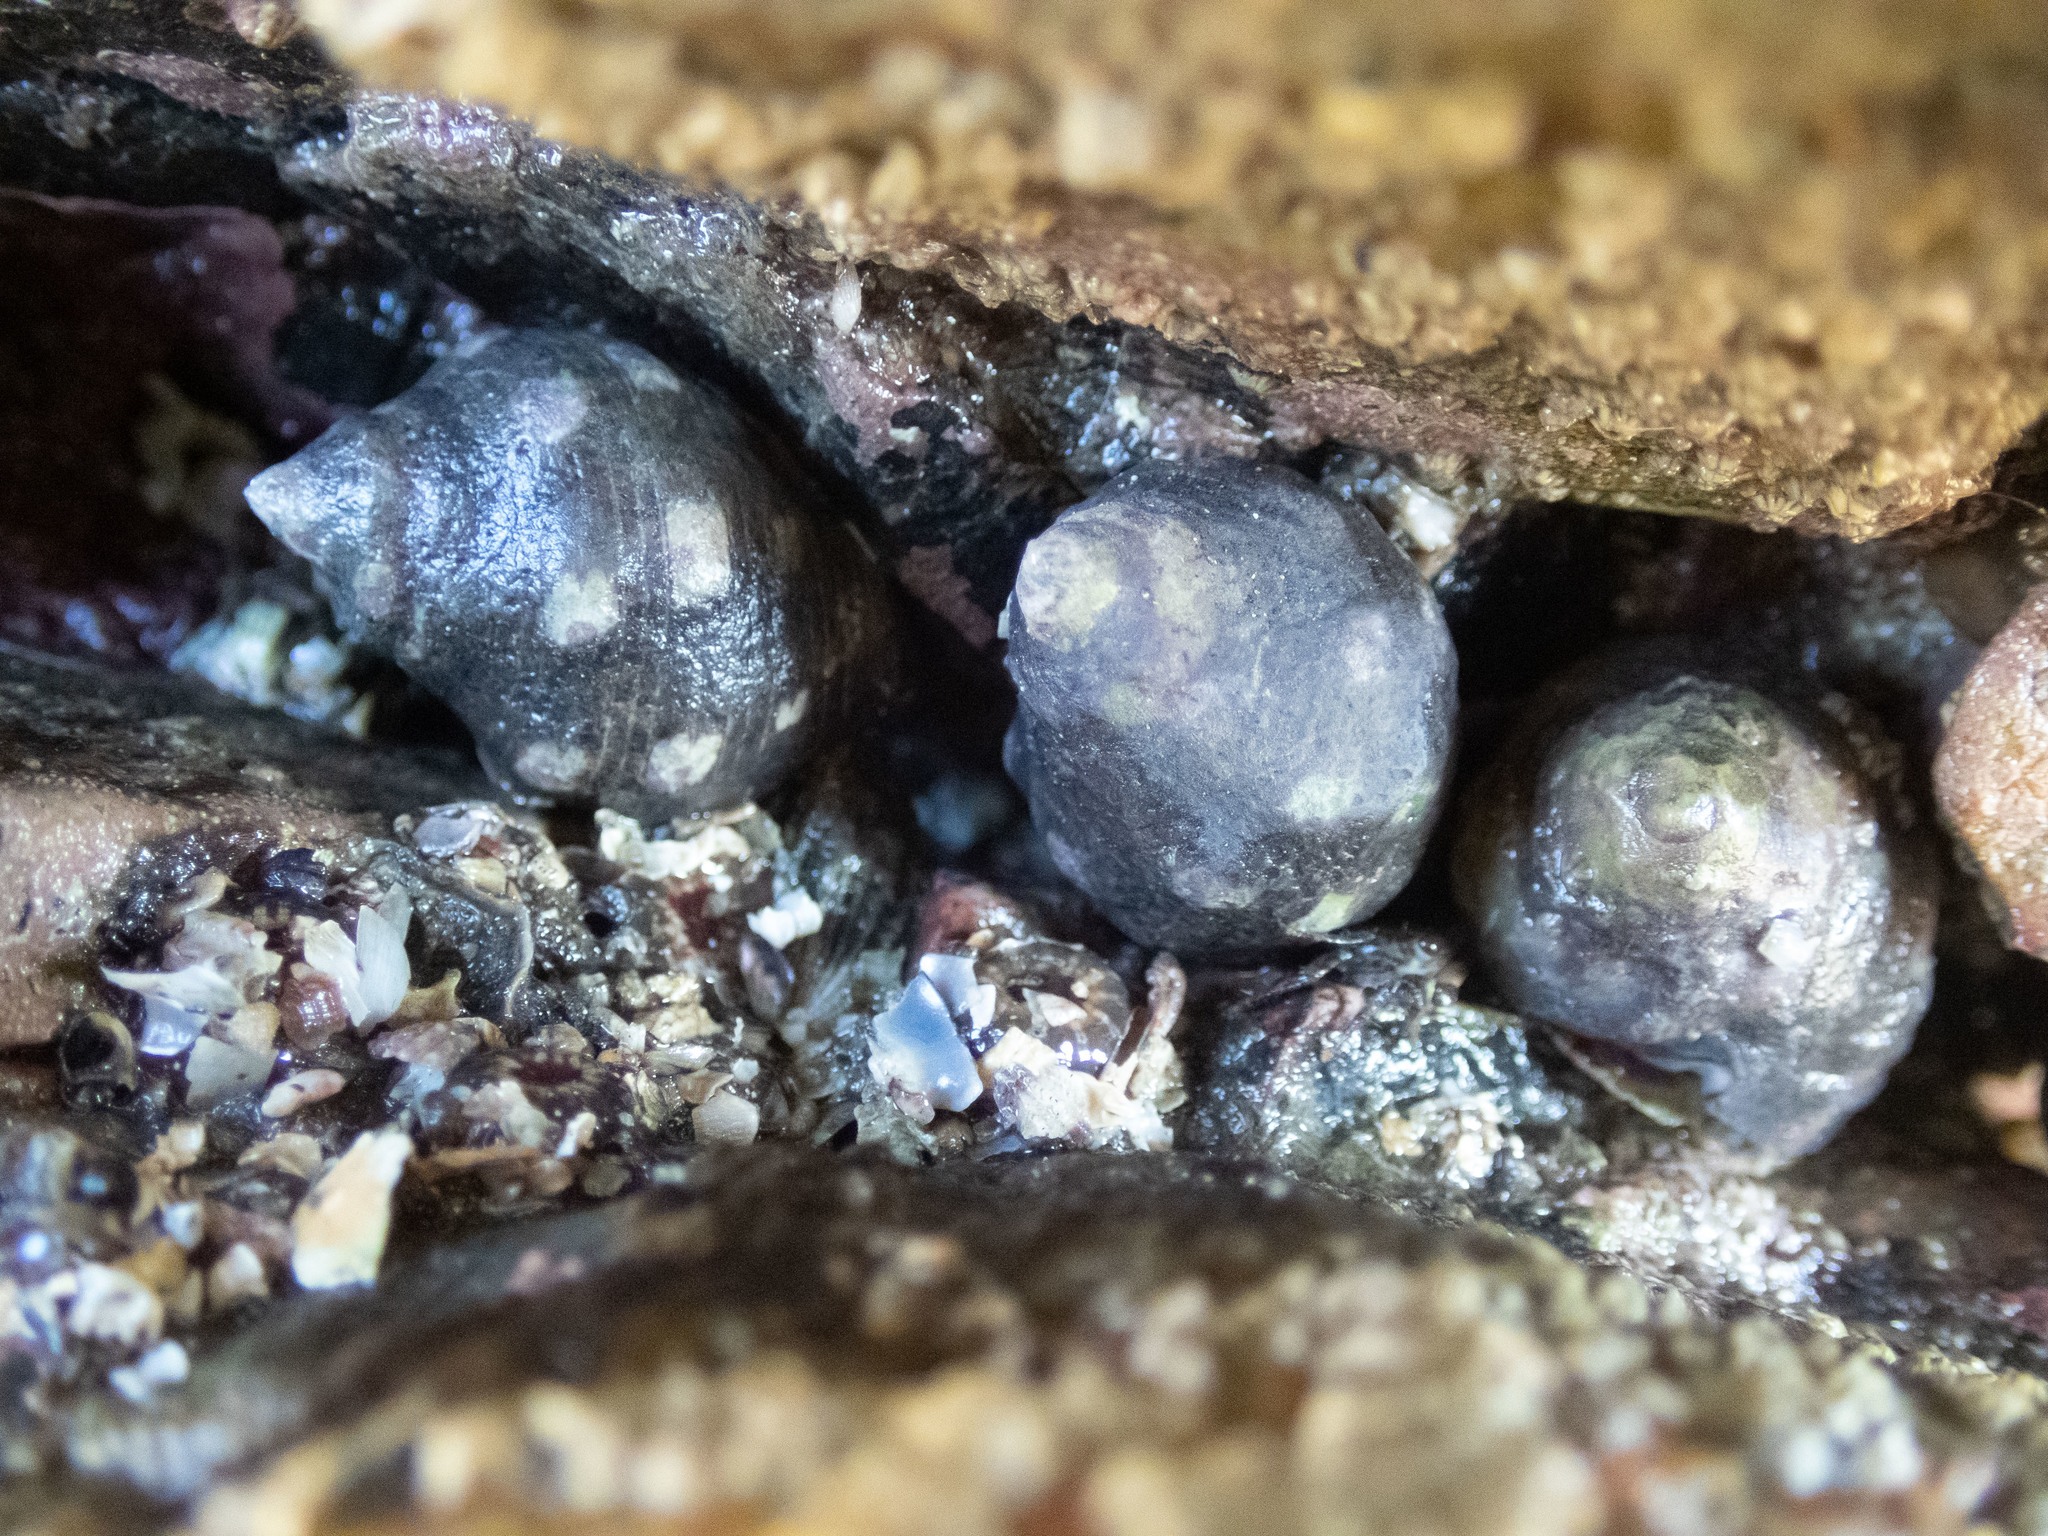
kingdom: Animalia
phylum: Mollusca
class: Gastropoda
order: Neogastropoda
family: Muricidae
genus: Acanthais
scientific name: Acanthais brevidentata
